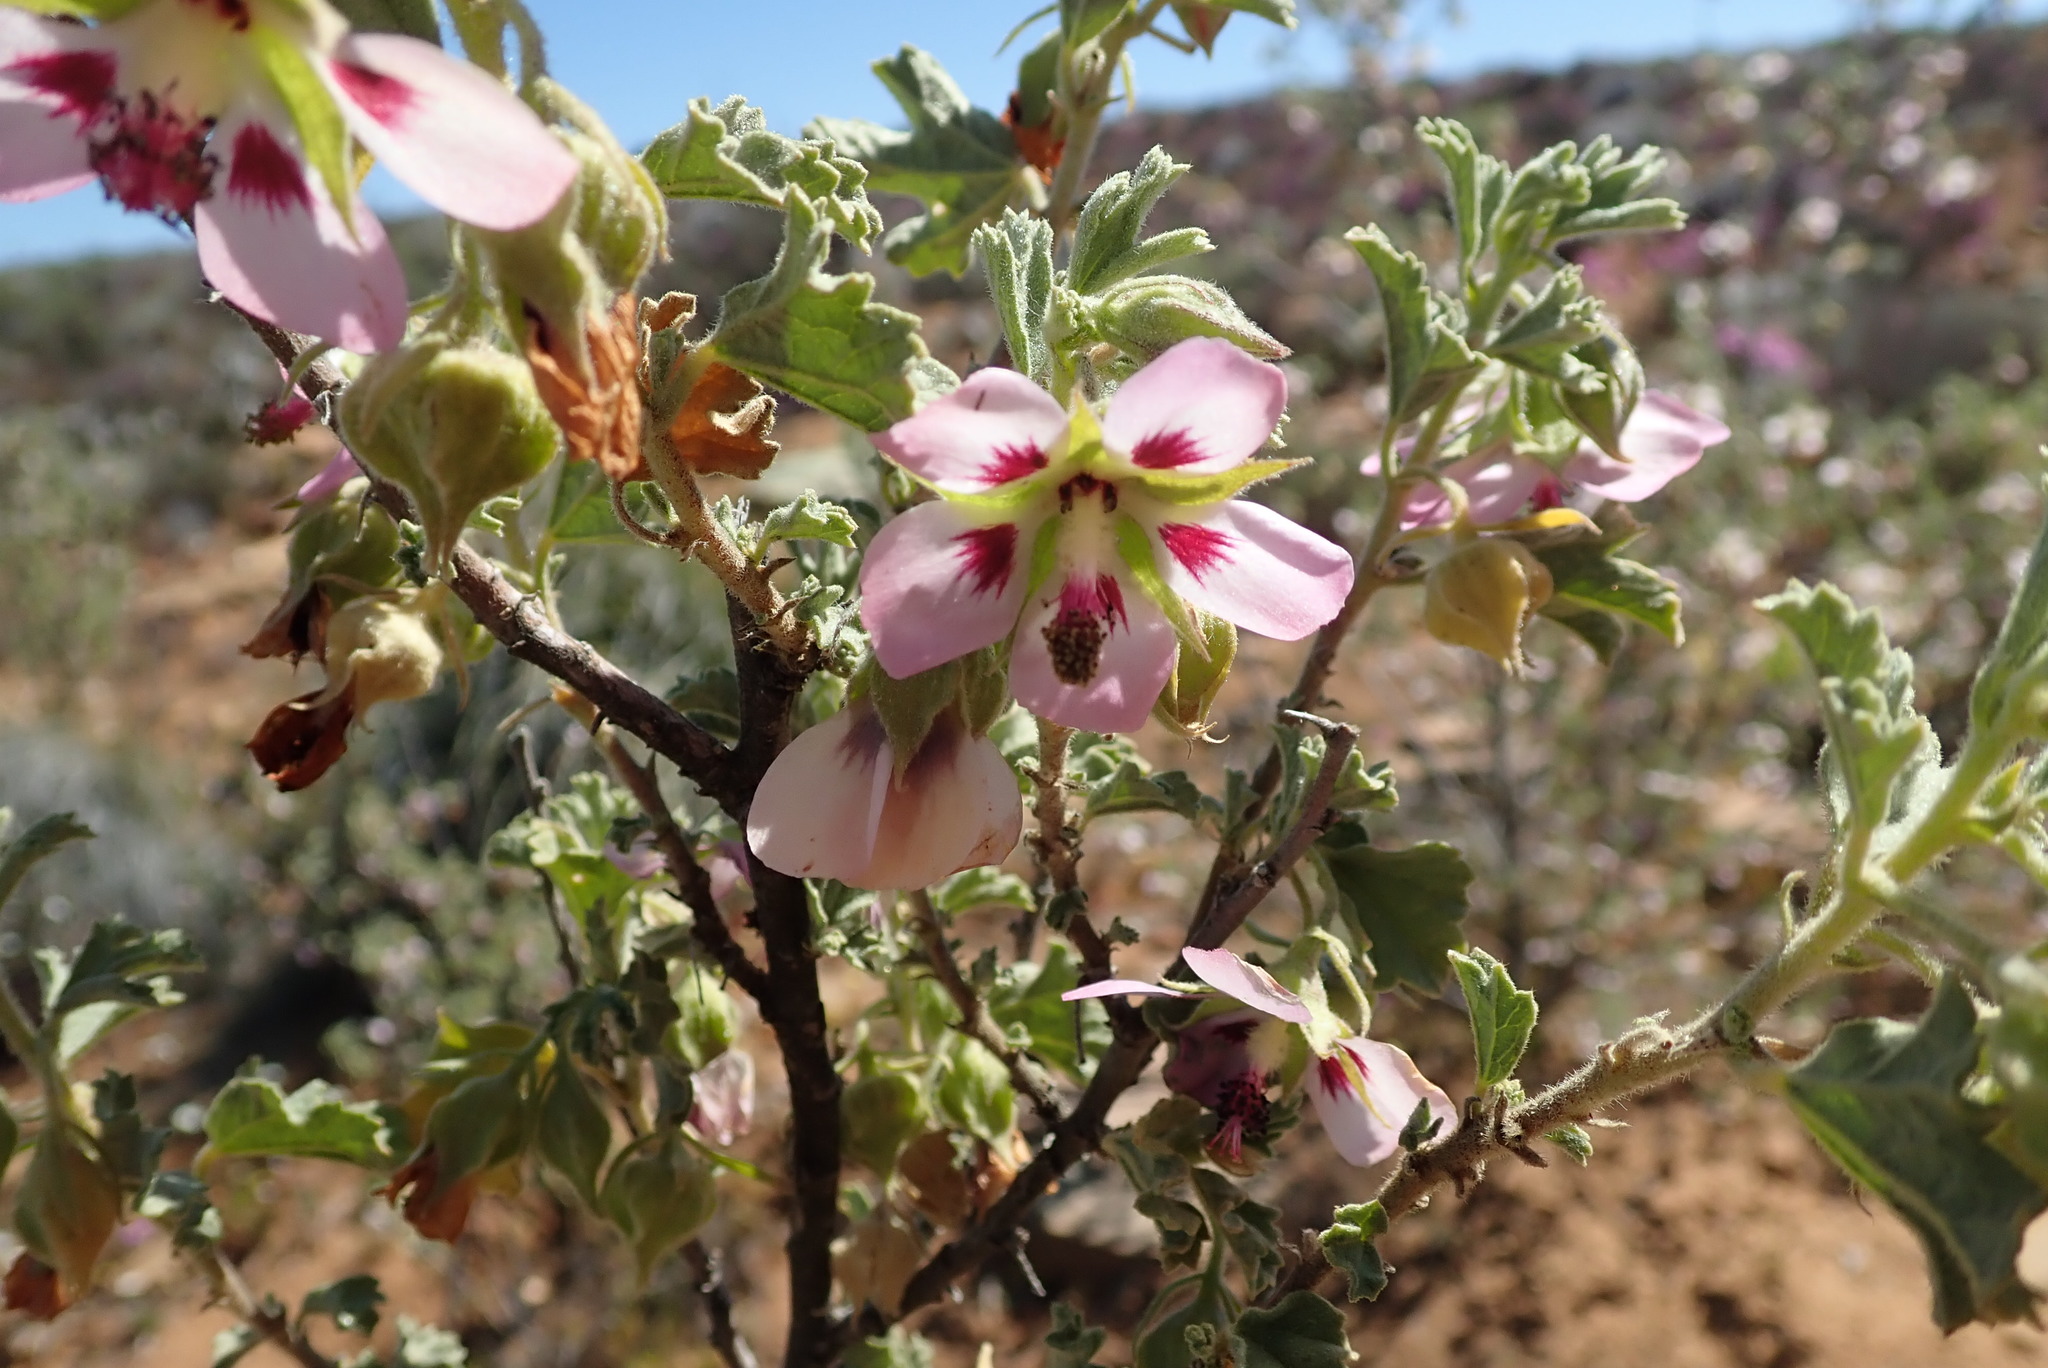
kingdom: Plantae
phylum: Tracheophyta
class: Magnoliopsida
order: Malvales
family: Malvaceae
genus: Anisodontea
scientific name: Anisodontea triloba
